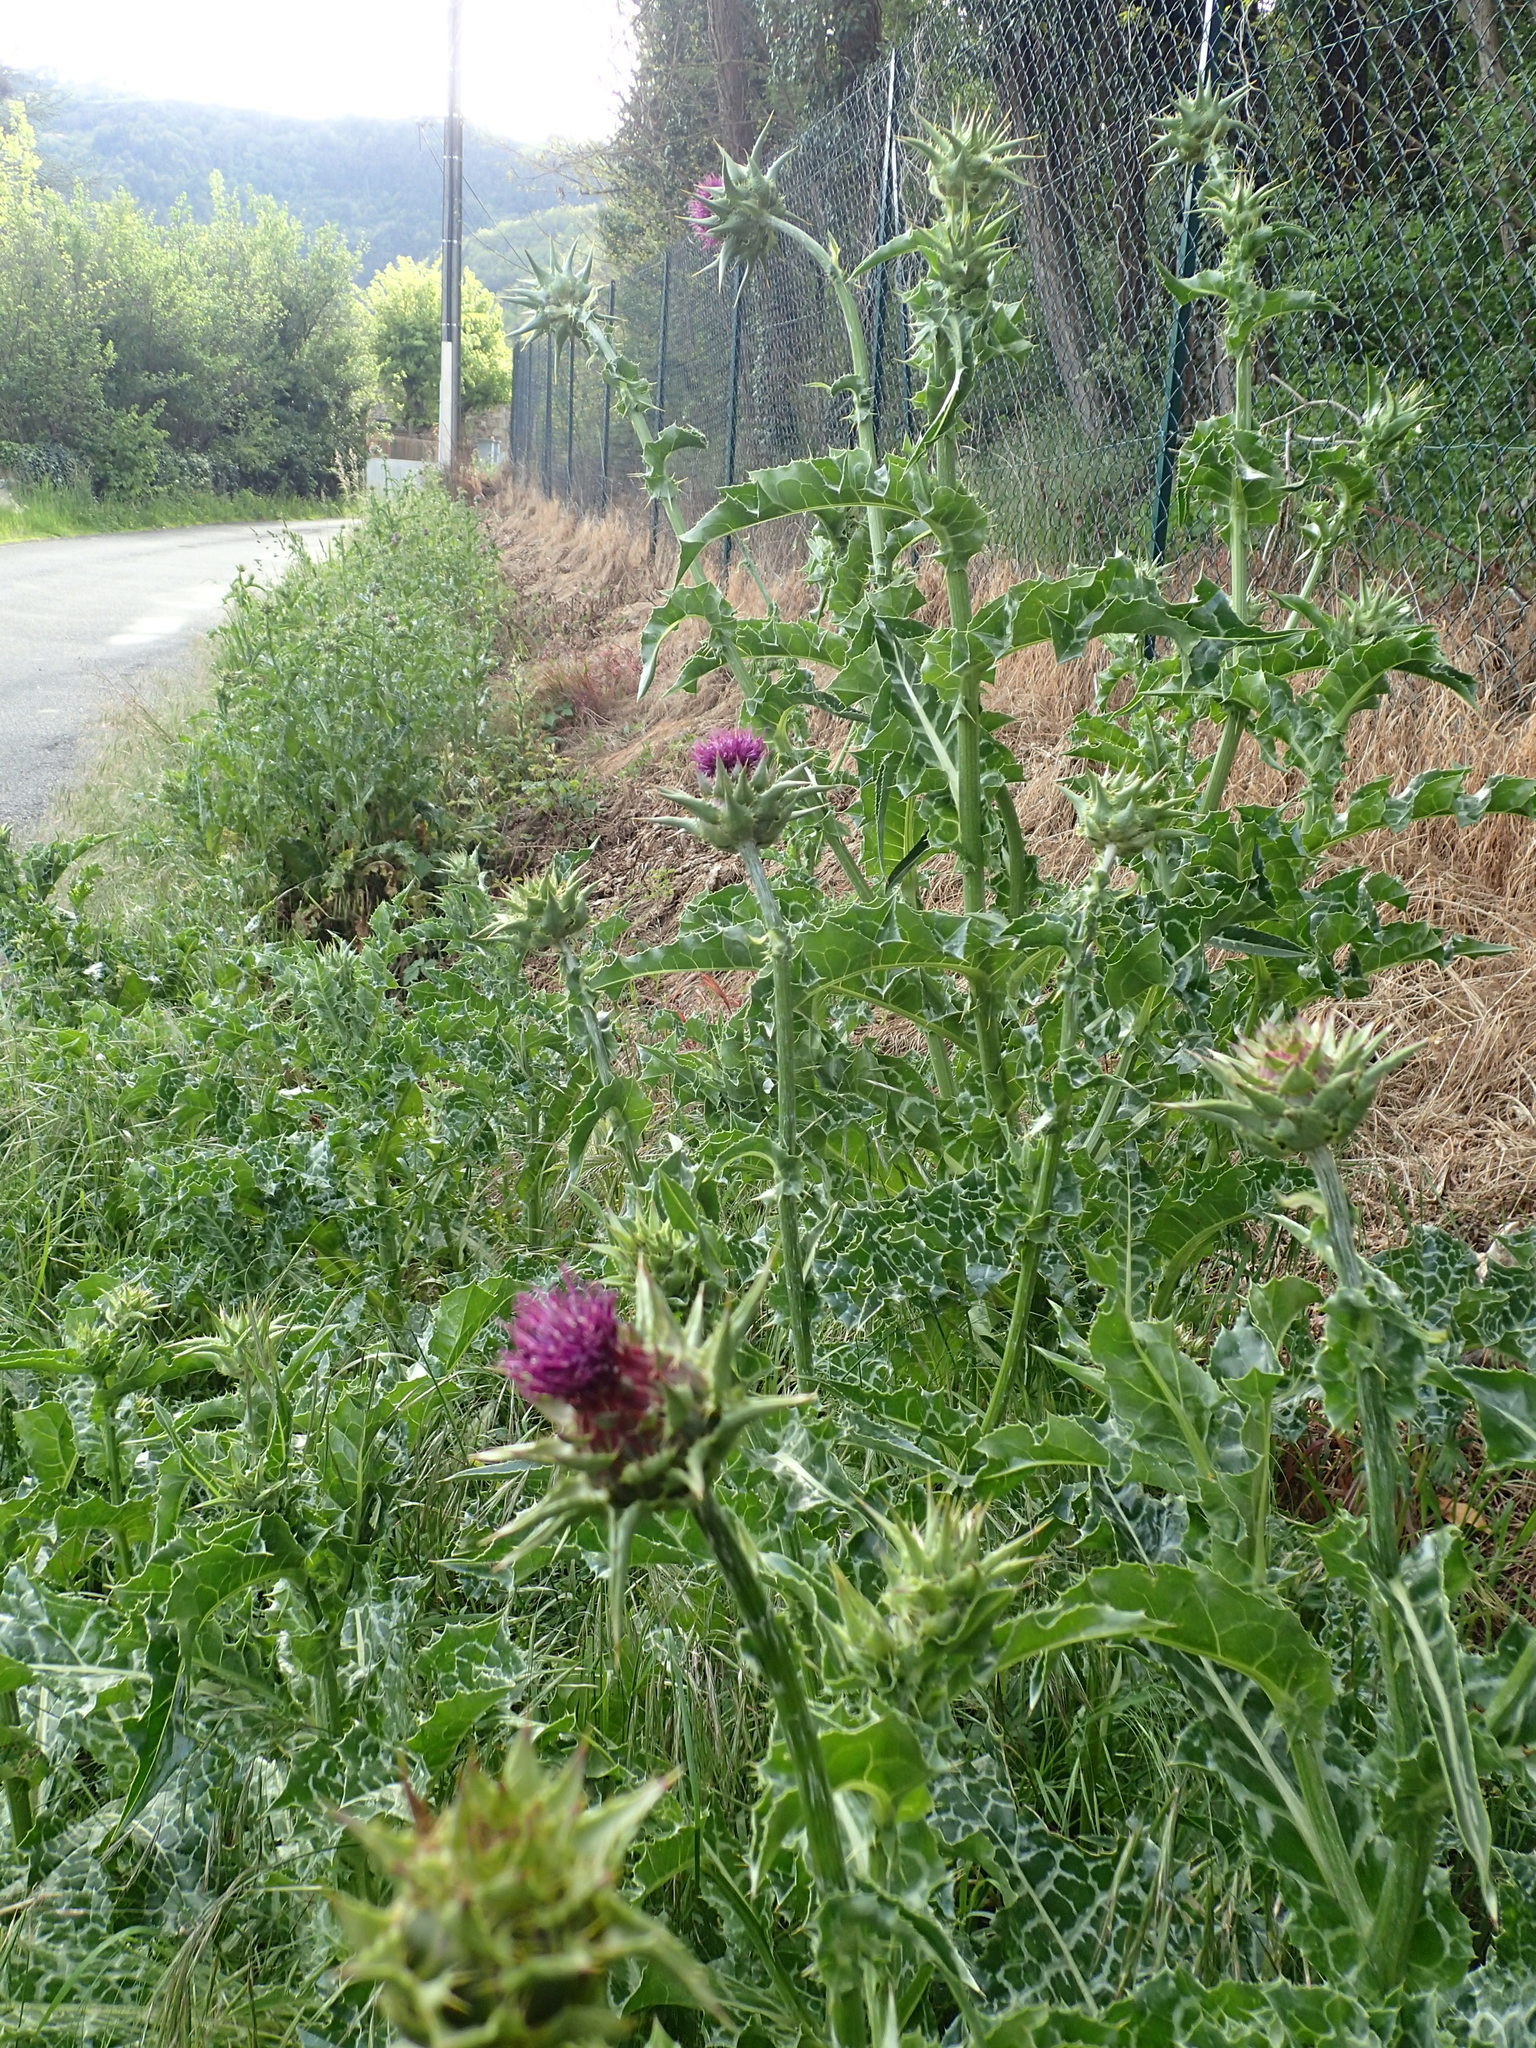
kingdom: Plantae
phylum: Tracheophyta
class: Magnoliopsida
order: Asterales
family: Asteraceae
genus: Silybum
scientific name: Silybum marianum
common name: Milk thistle
